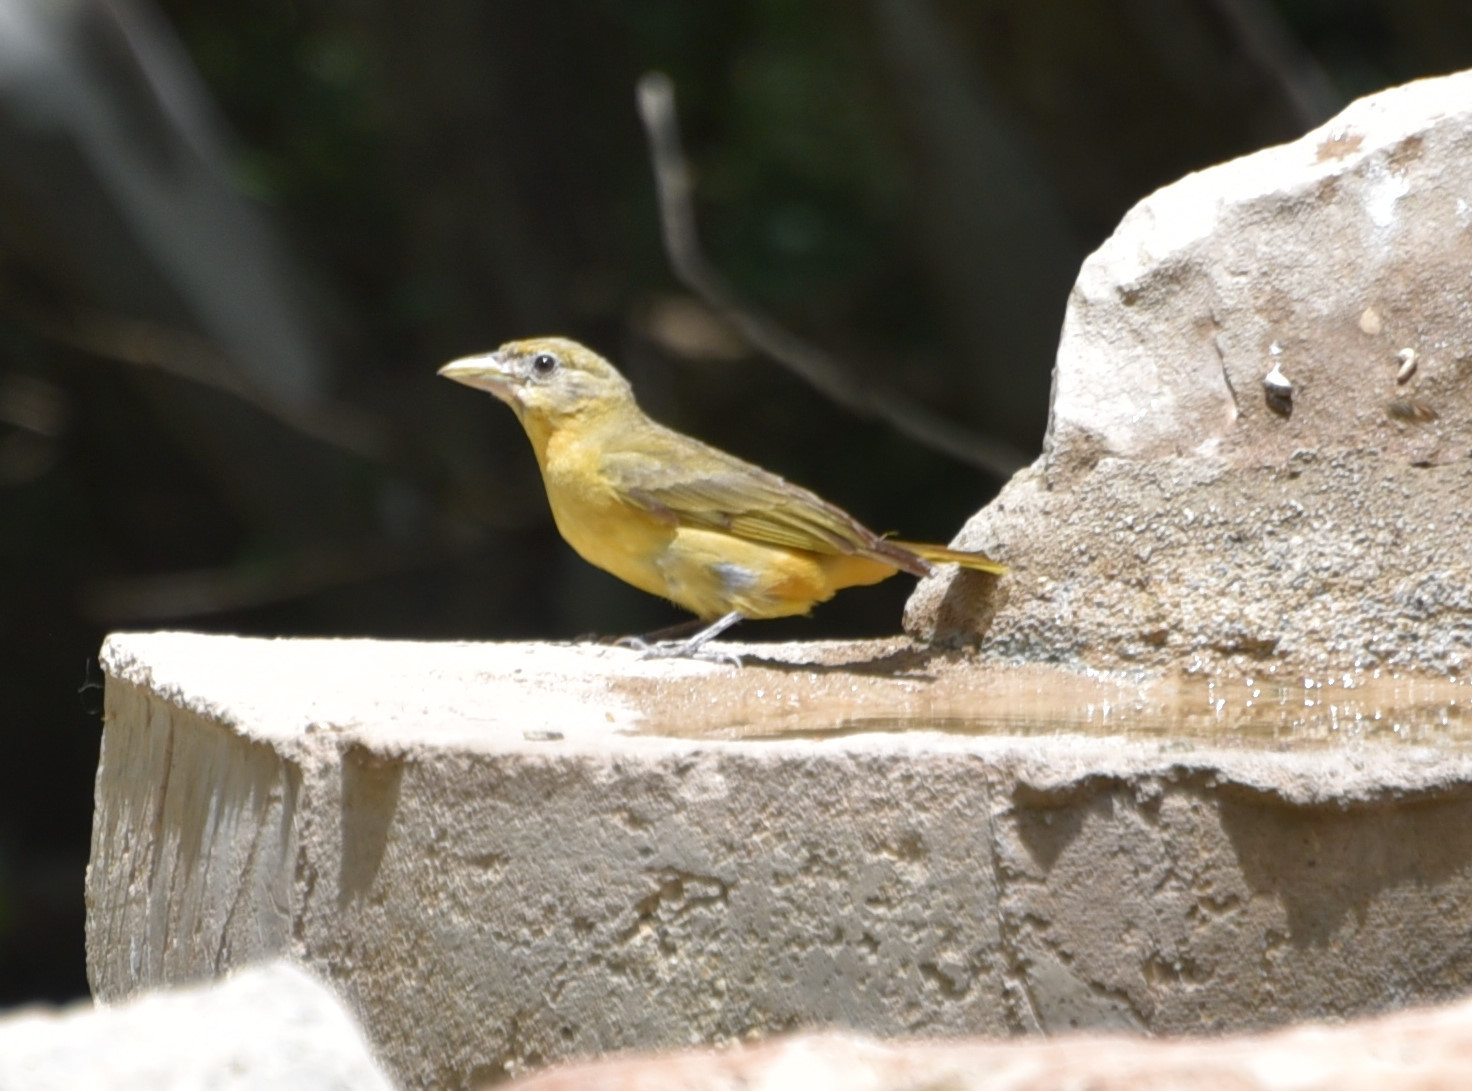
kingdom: Animalia
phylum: Chordata
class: Aves
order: Passeriformes
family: Cardinalidae
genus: Piranga
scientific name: Piranga rubra
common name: Summer tanager
